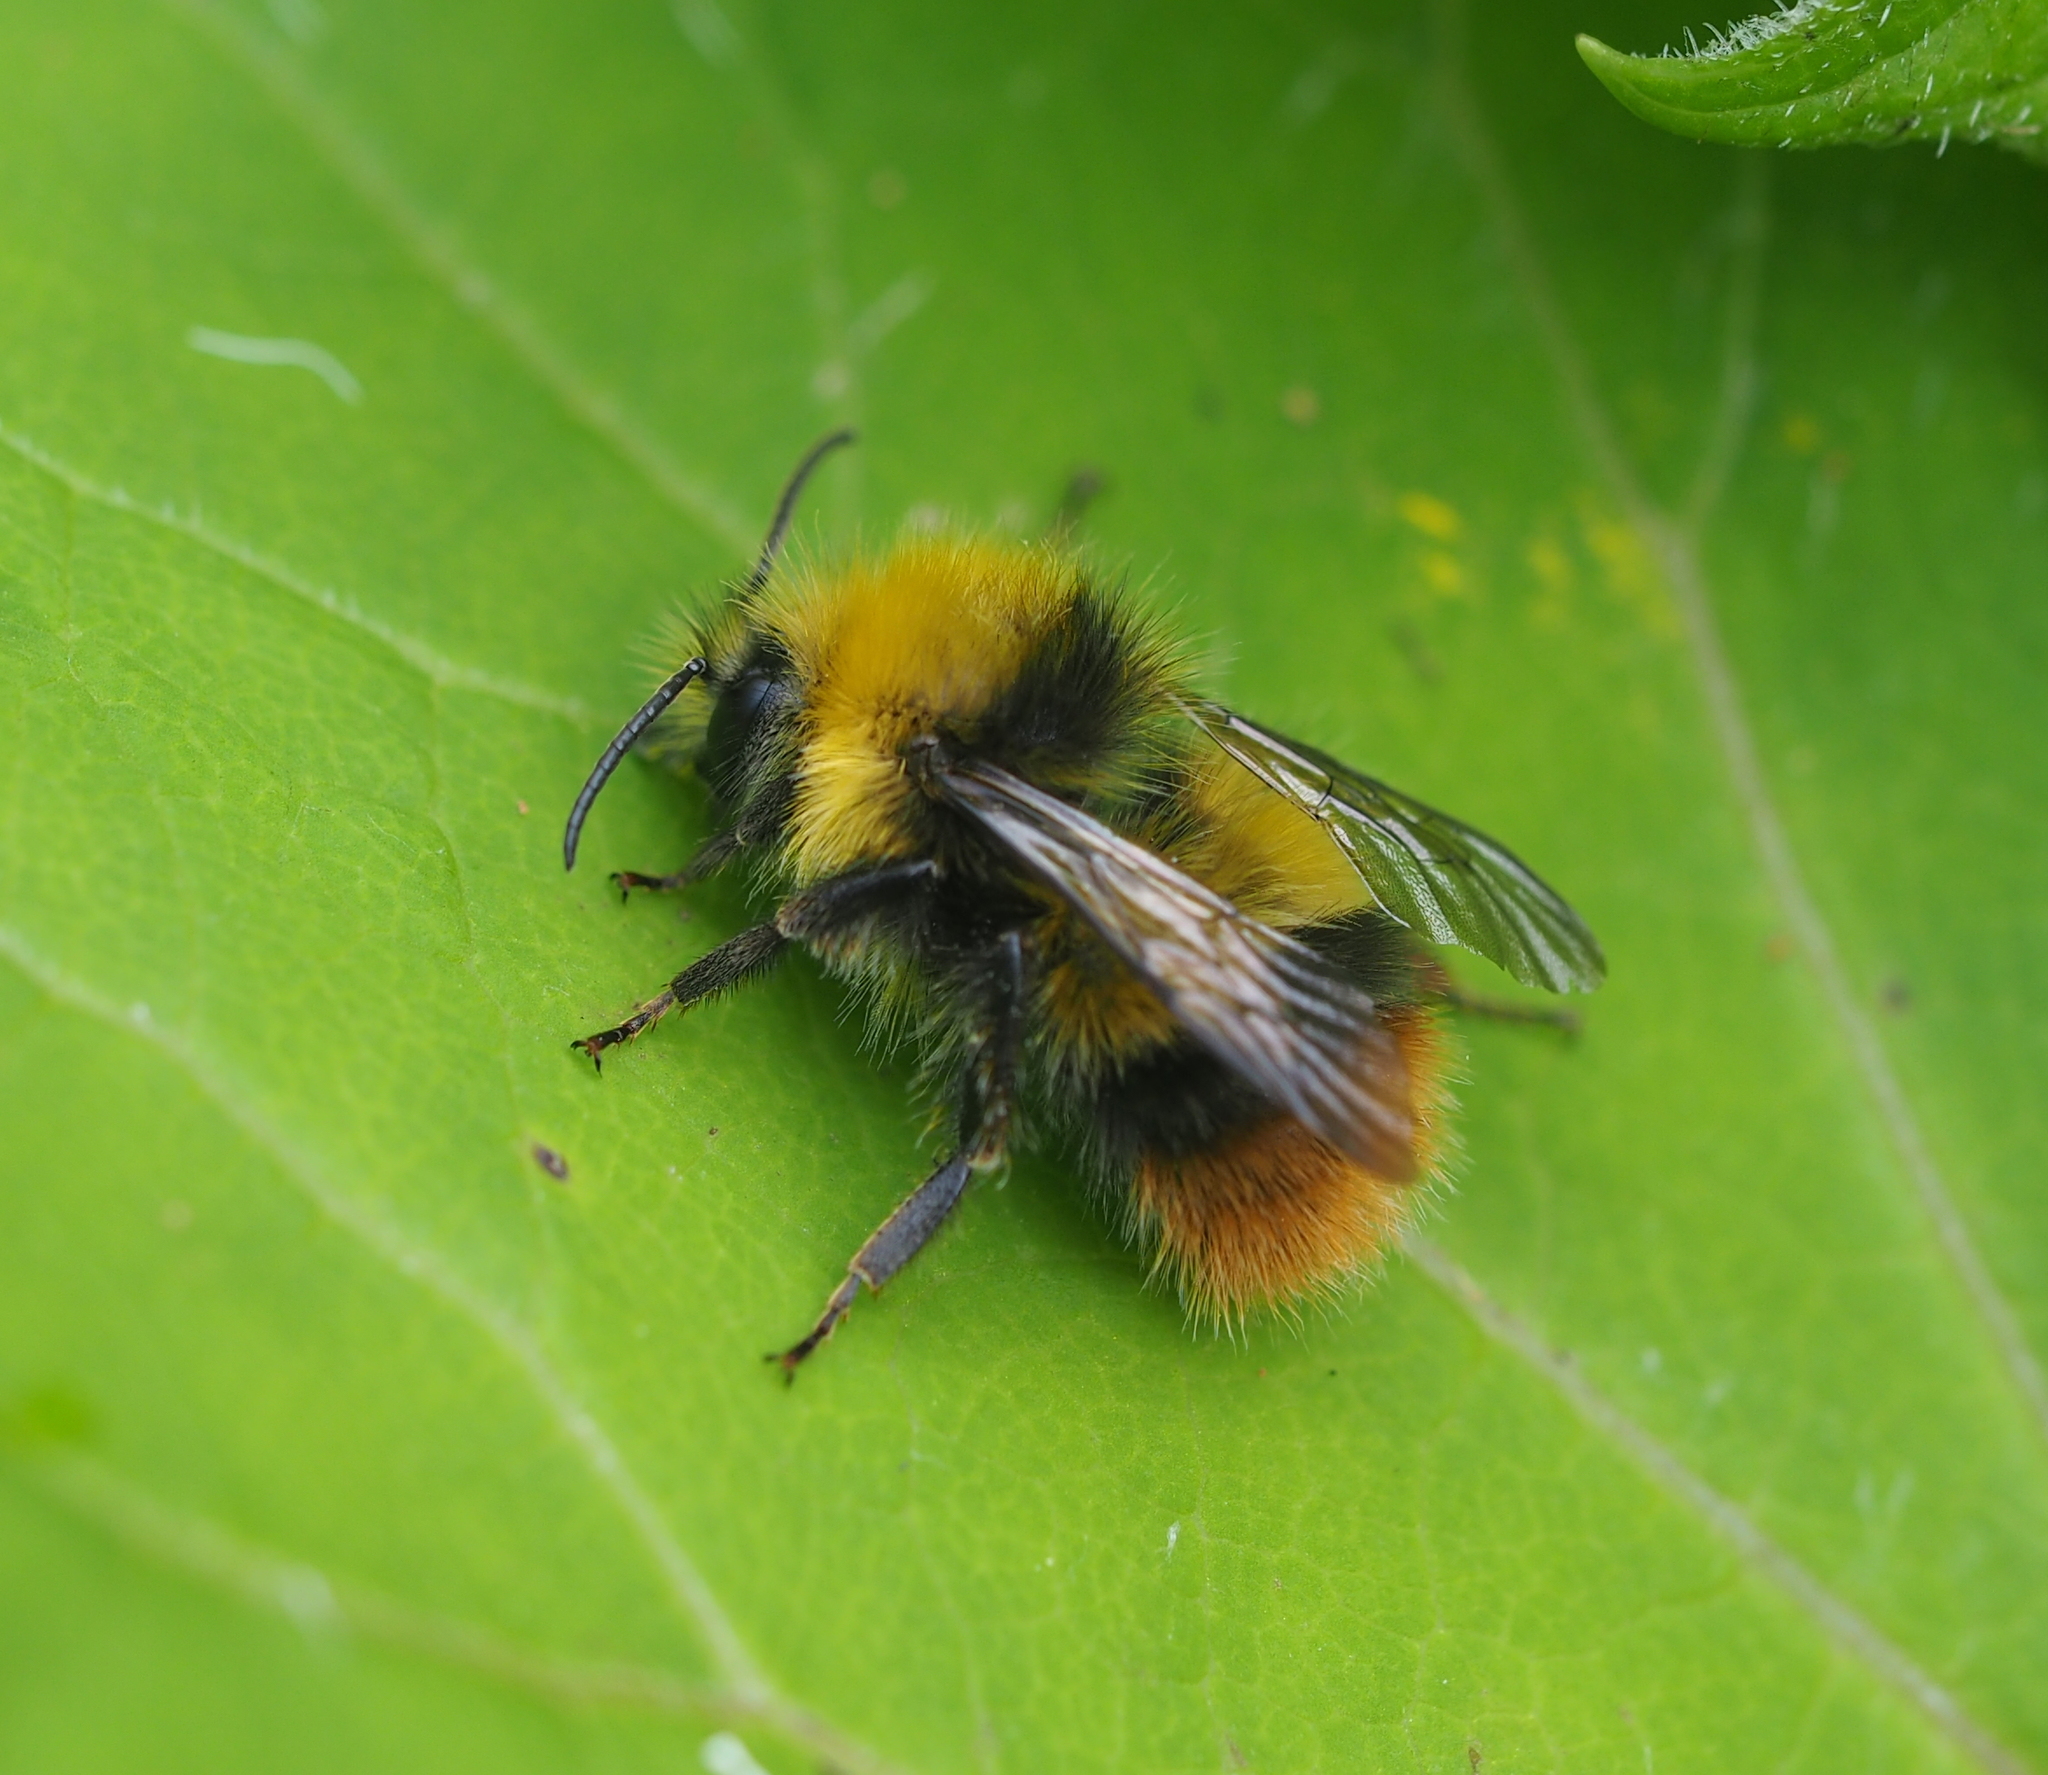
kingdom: Animalia
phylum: Arthropoda
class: Insecta
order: Hymenoptera
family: Apidae
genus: Bombus
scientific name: Bombus pratorum
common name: Early humble-bee
